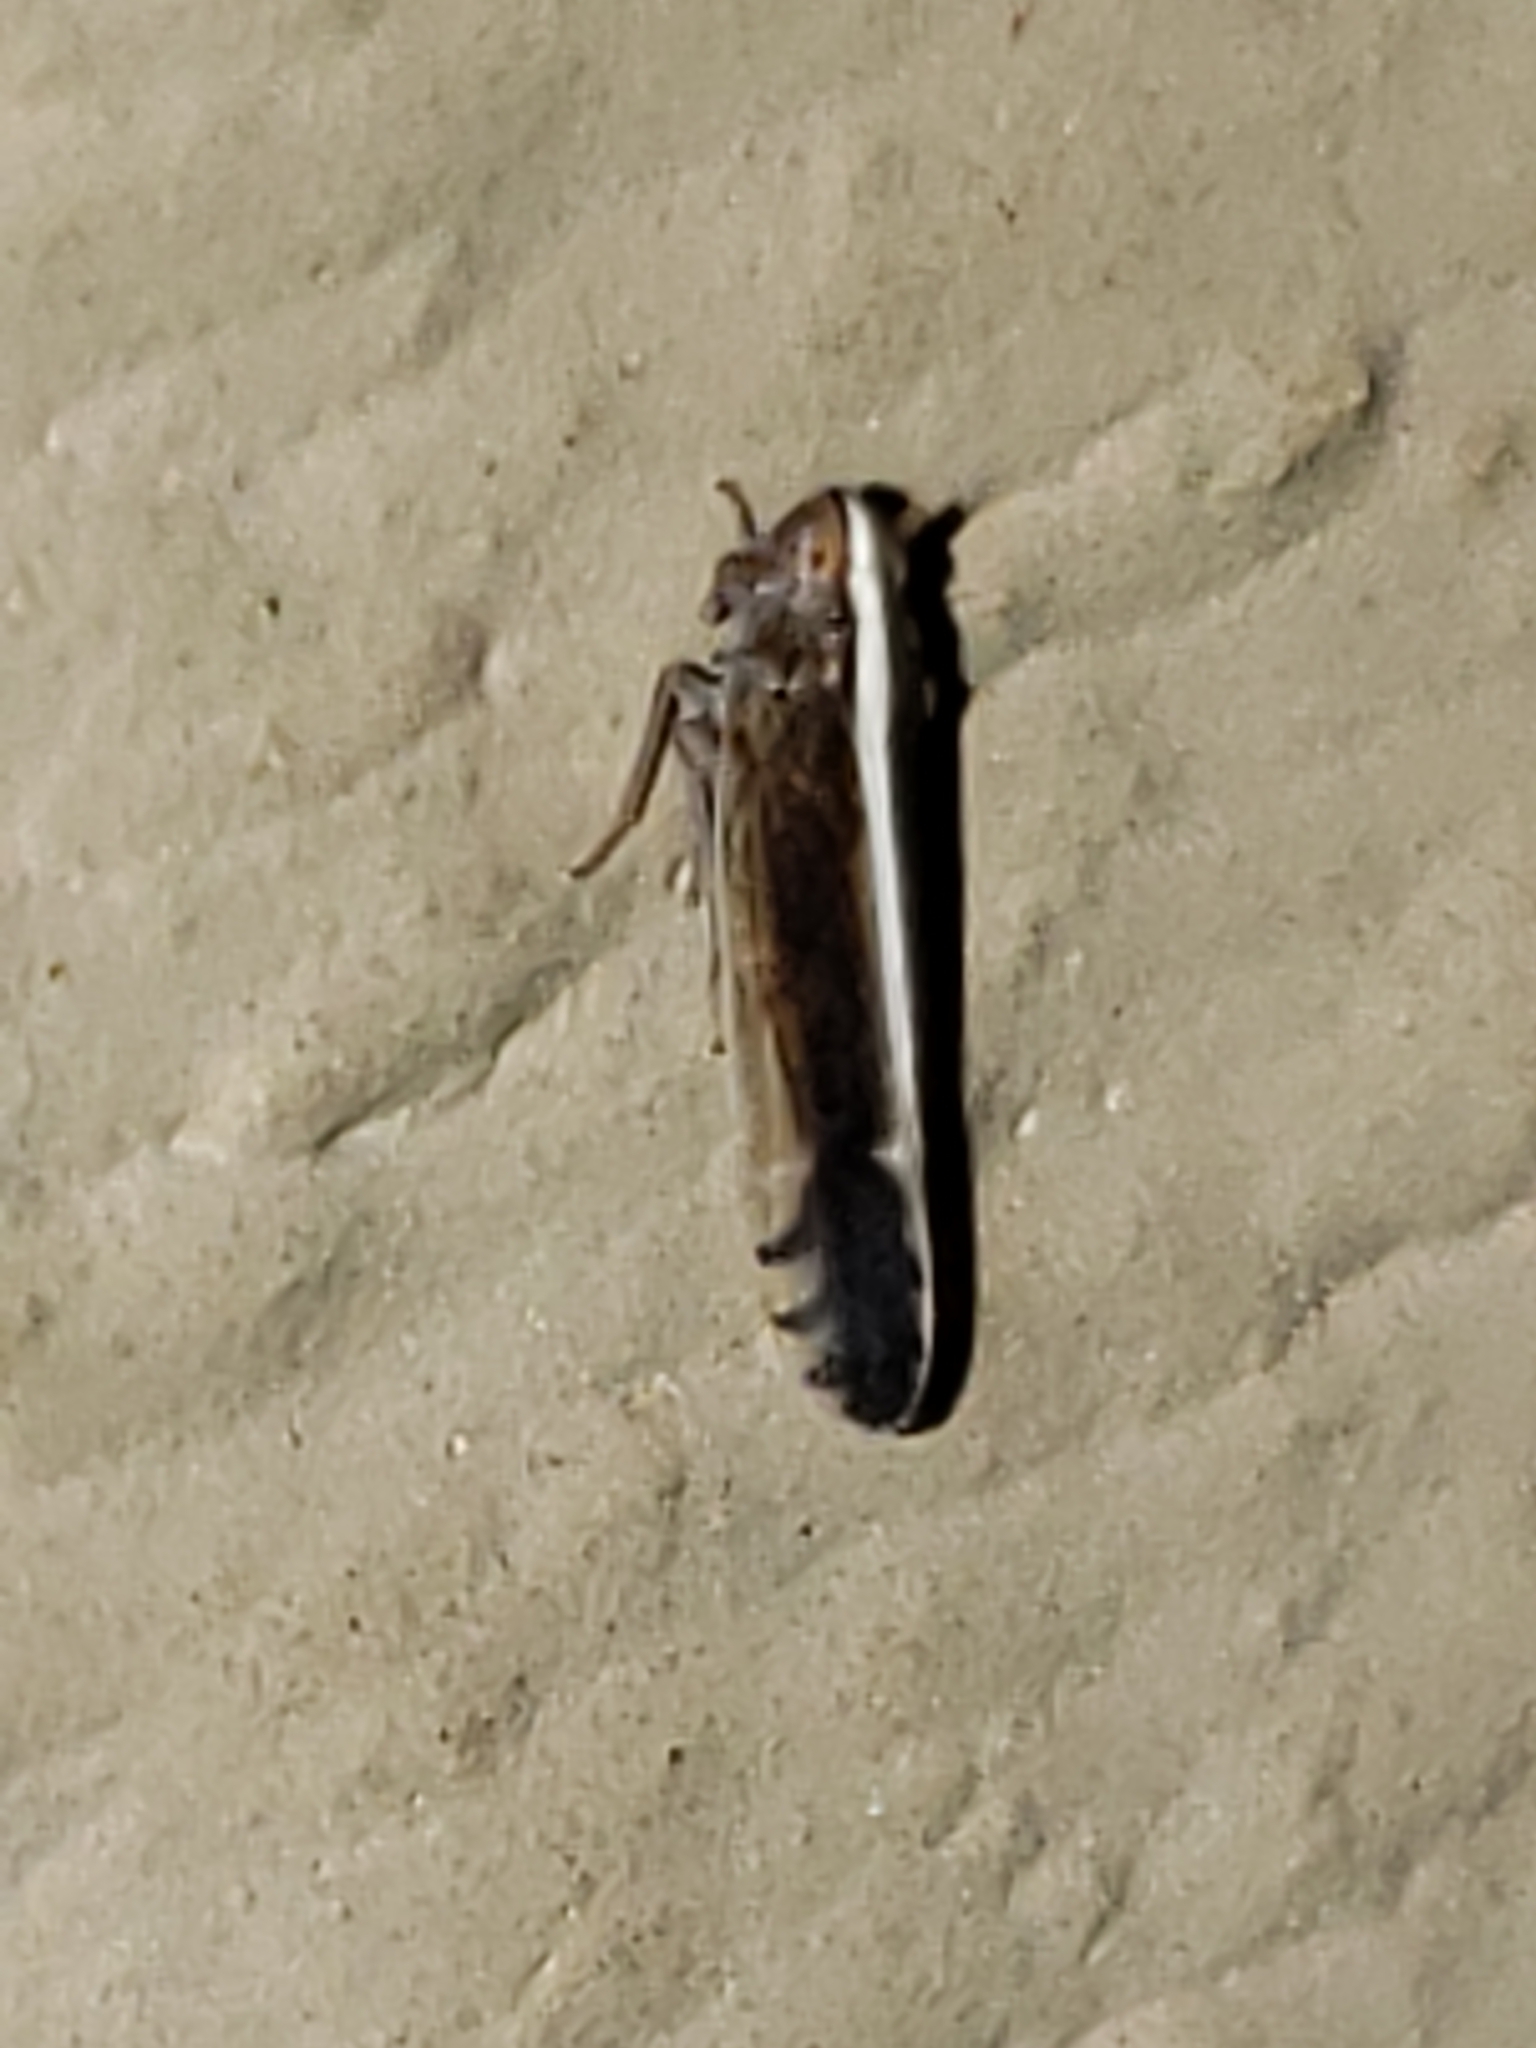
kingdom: Animalia
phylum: Arthropoda
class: Insecta
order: Hemiptera
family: Delphacidae
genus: Stenocranus
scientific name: Stenocranus brunneus
